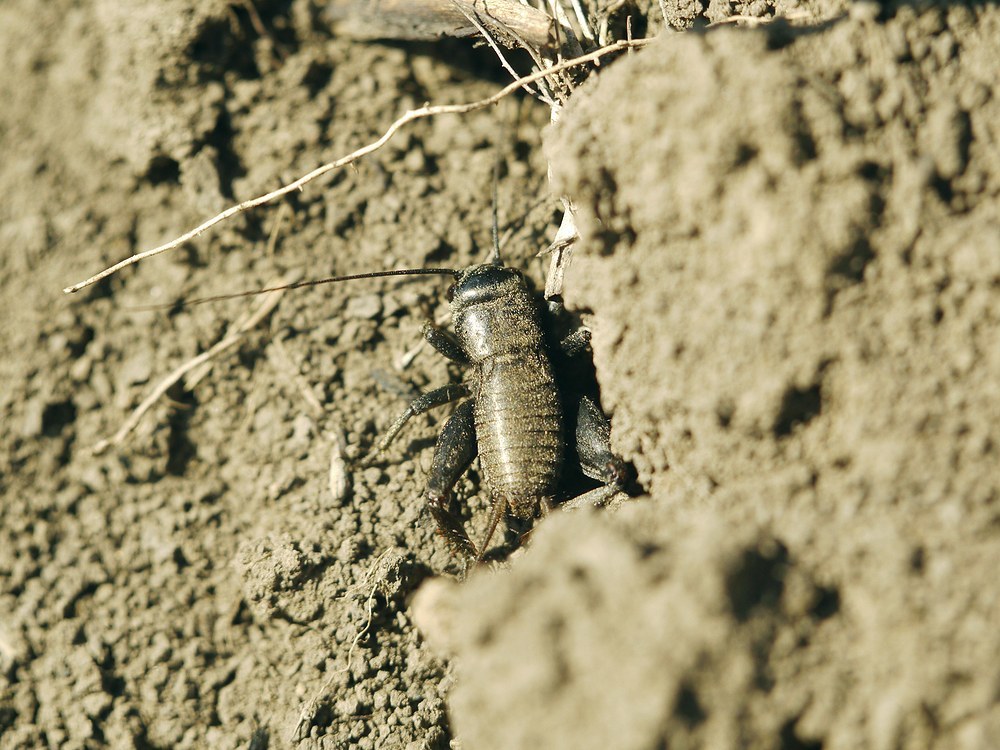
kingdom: Animalia
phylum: Arthropoda
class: Insecta
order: Orthoptera
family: Gryllidae
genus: Melanogryllus
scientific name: Melanogryllus desertus
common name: Desert cricket
